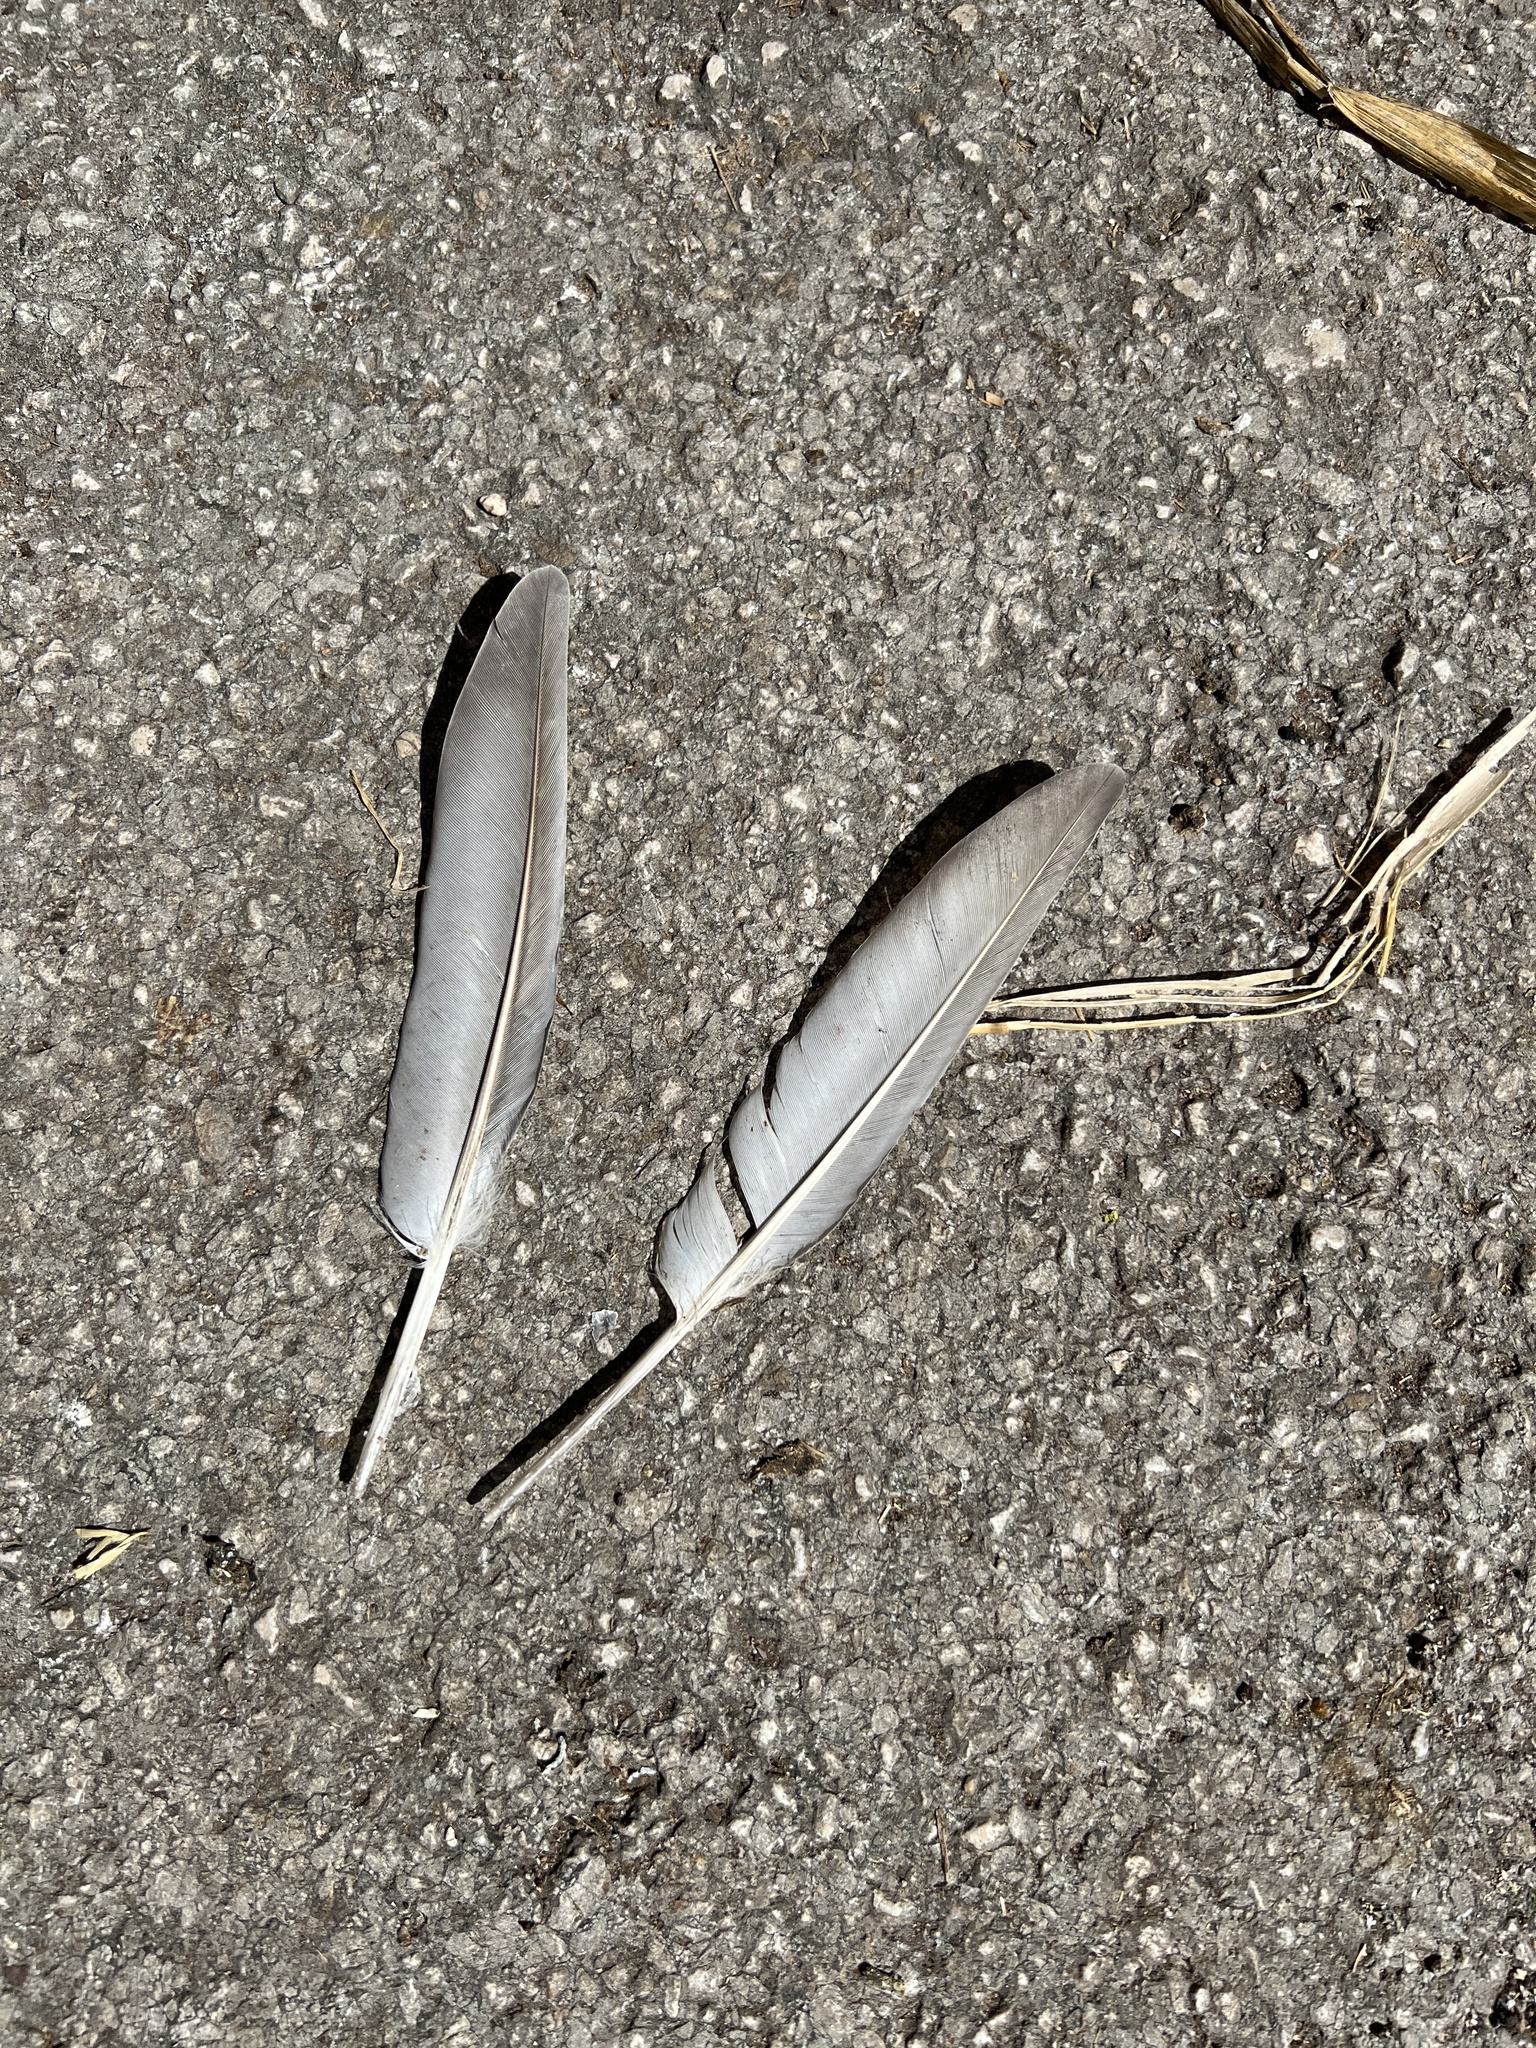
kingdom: Animalia
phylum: Chordata
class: Aves
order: Columbiformes
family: Columbidae
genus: Columba
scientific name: Columba livia
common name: Rock pigeon
